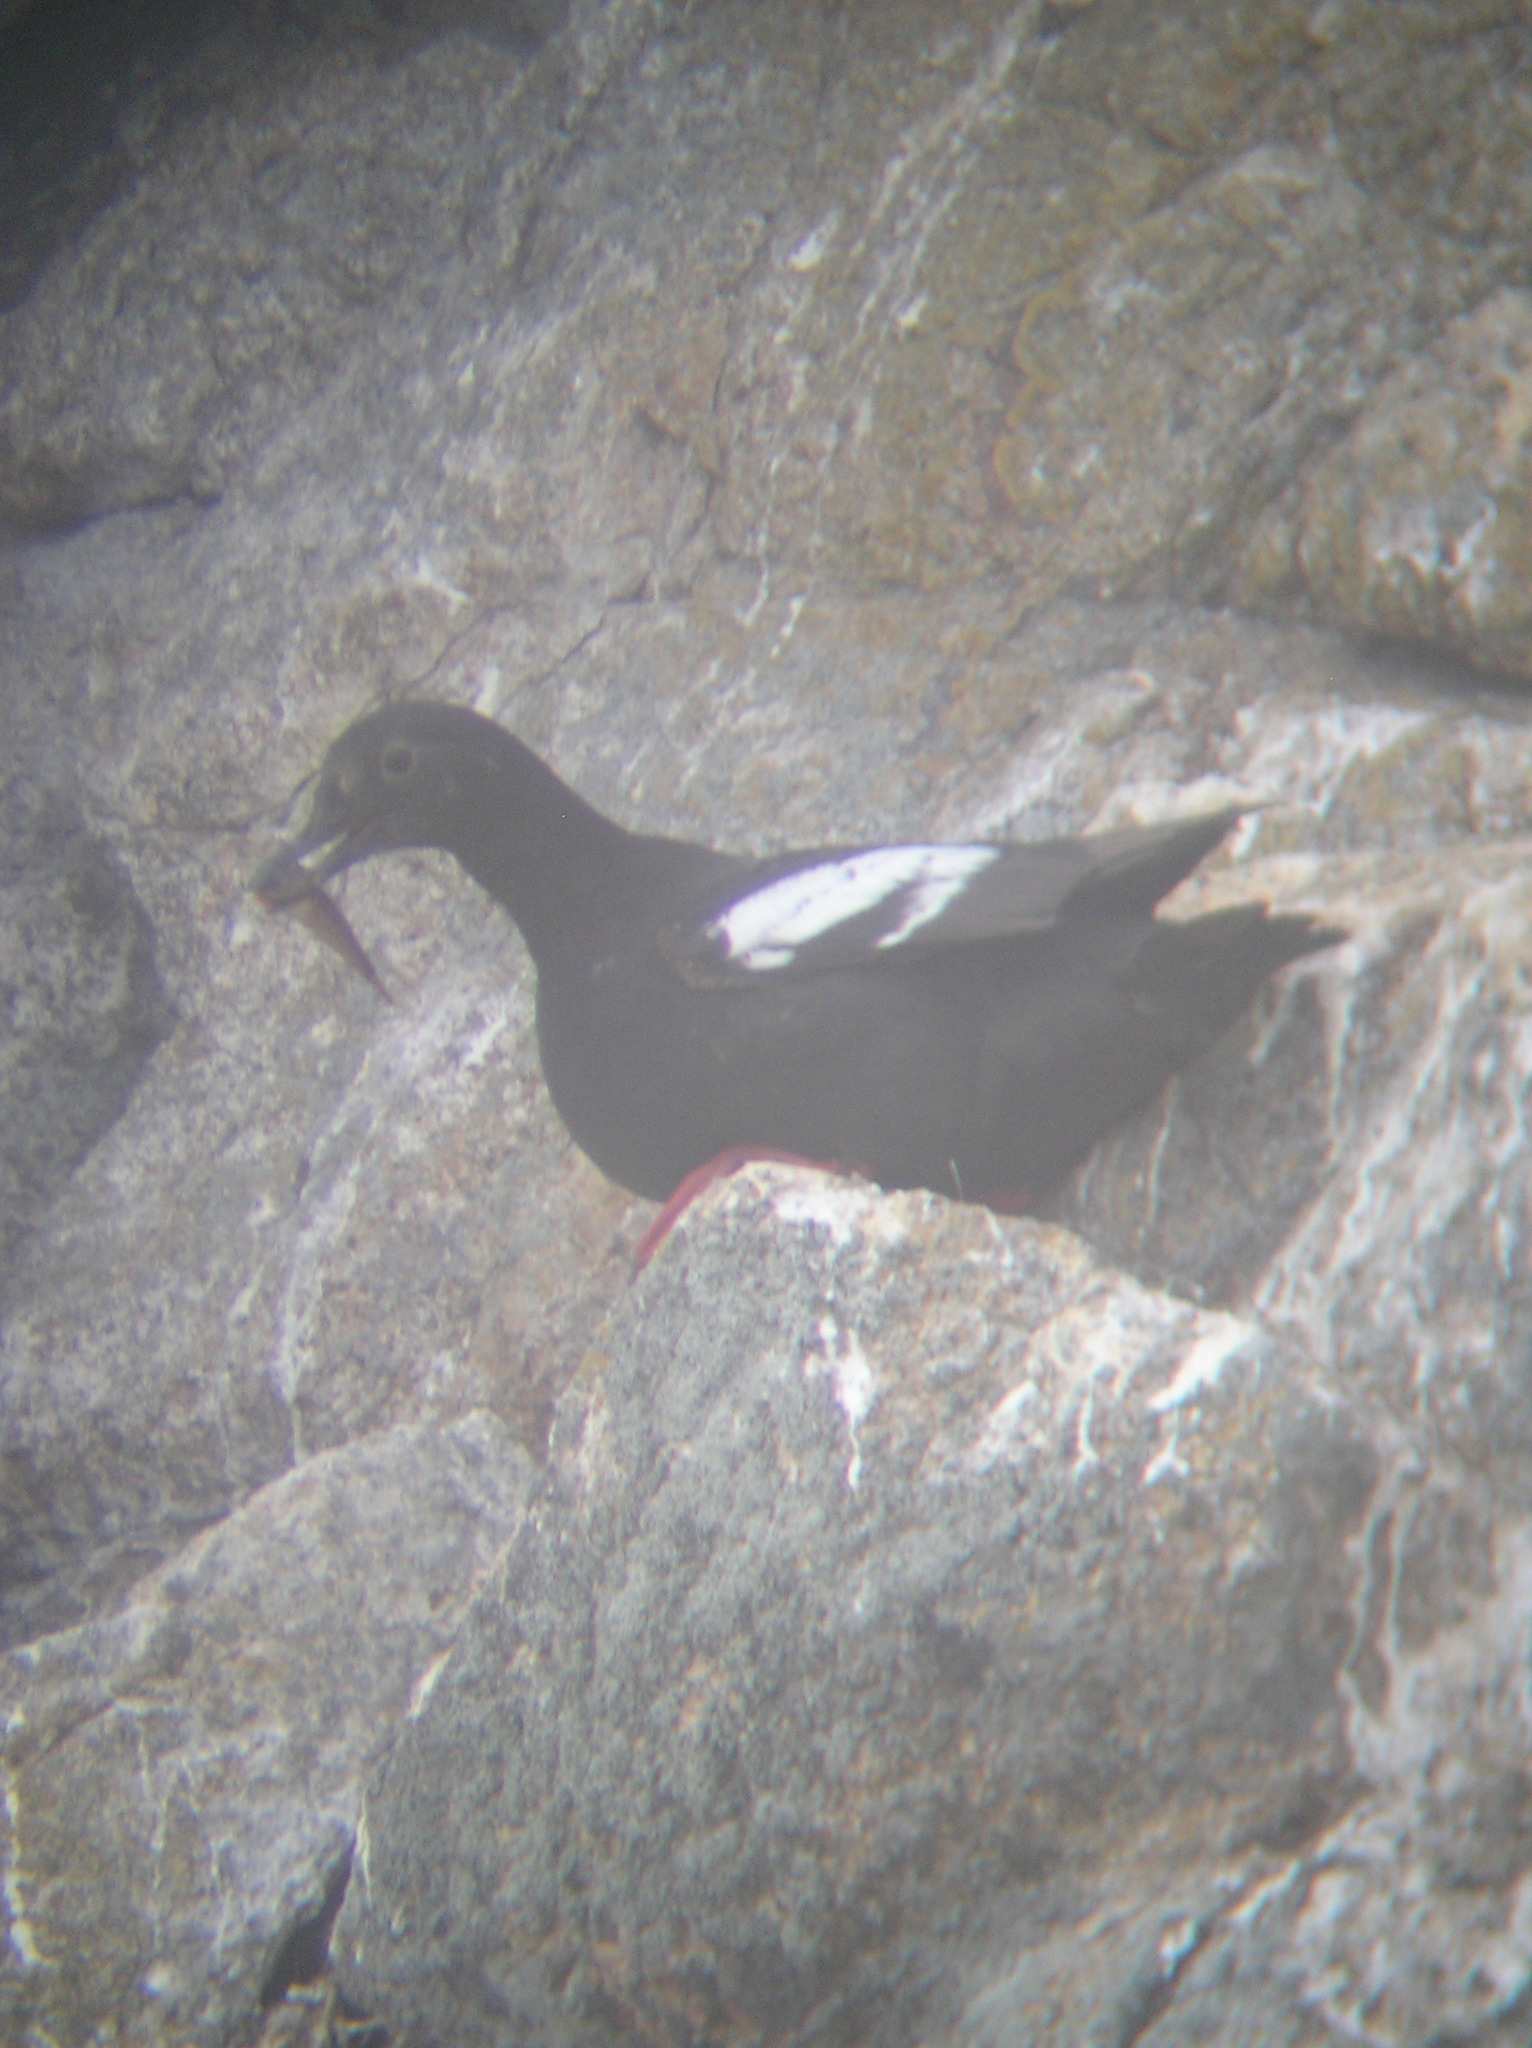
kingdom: Animalia
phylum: Chordata
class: Aves
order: Charadriiformes
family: Alcidae
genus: Cepphus
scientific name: Cepphus columba
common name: Pigeon guillemot
